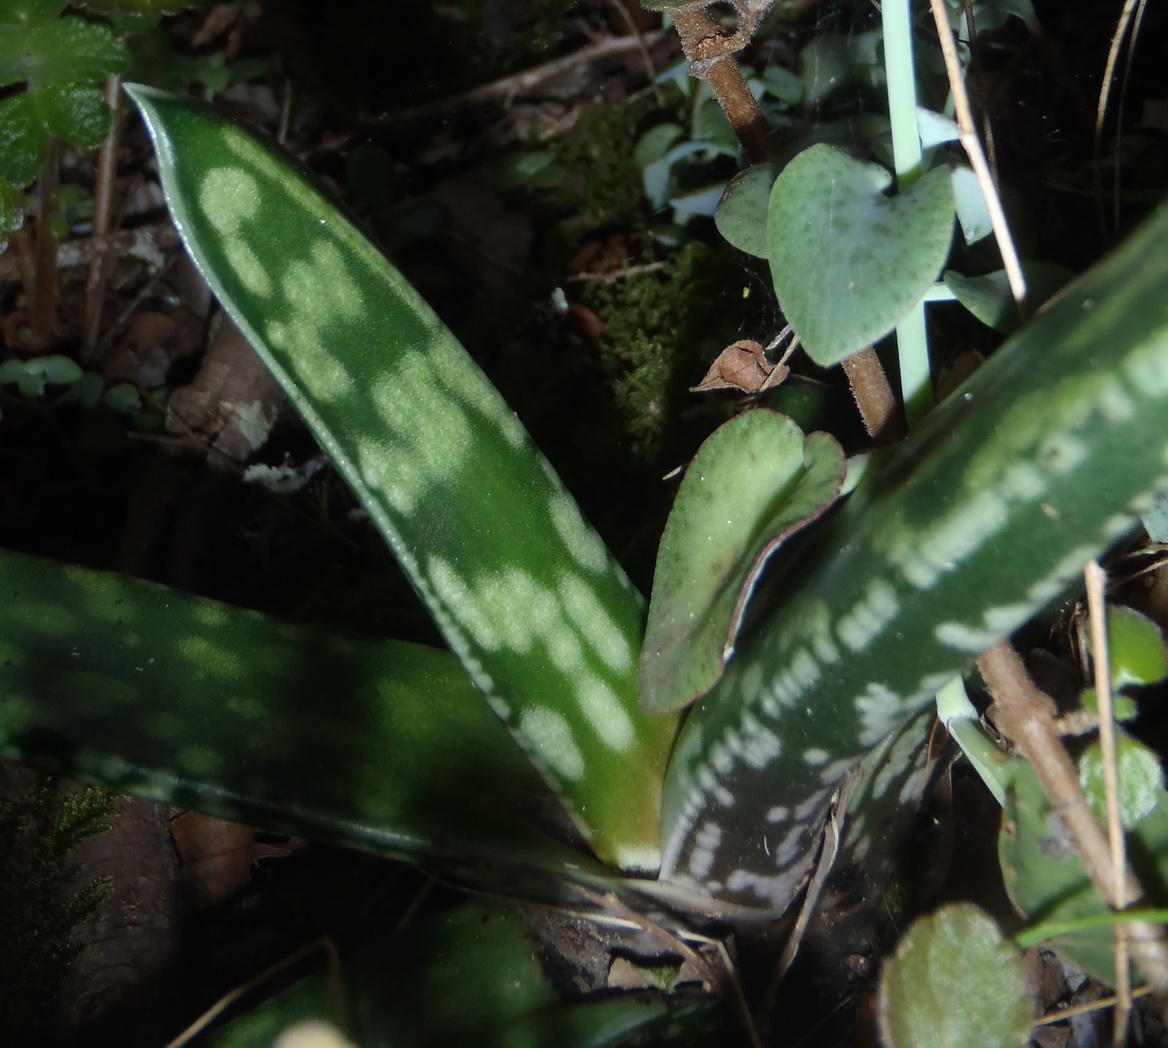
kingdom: Plantae
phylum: Tracheophyta
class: Liliopsida
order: Asparagales
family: Asphodelaceae
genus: Gasteria
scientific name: Gasteria obliqua
